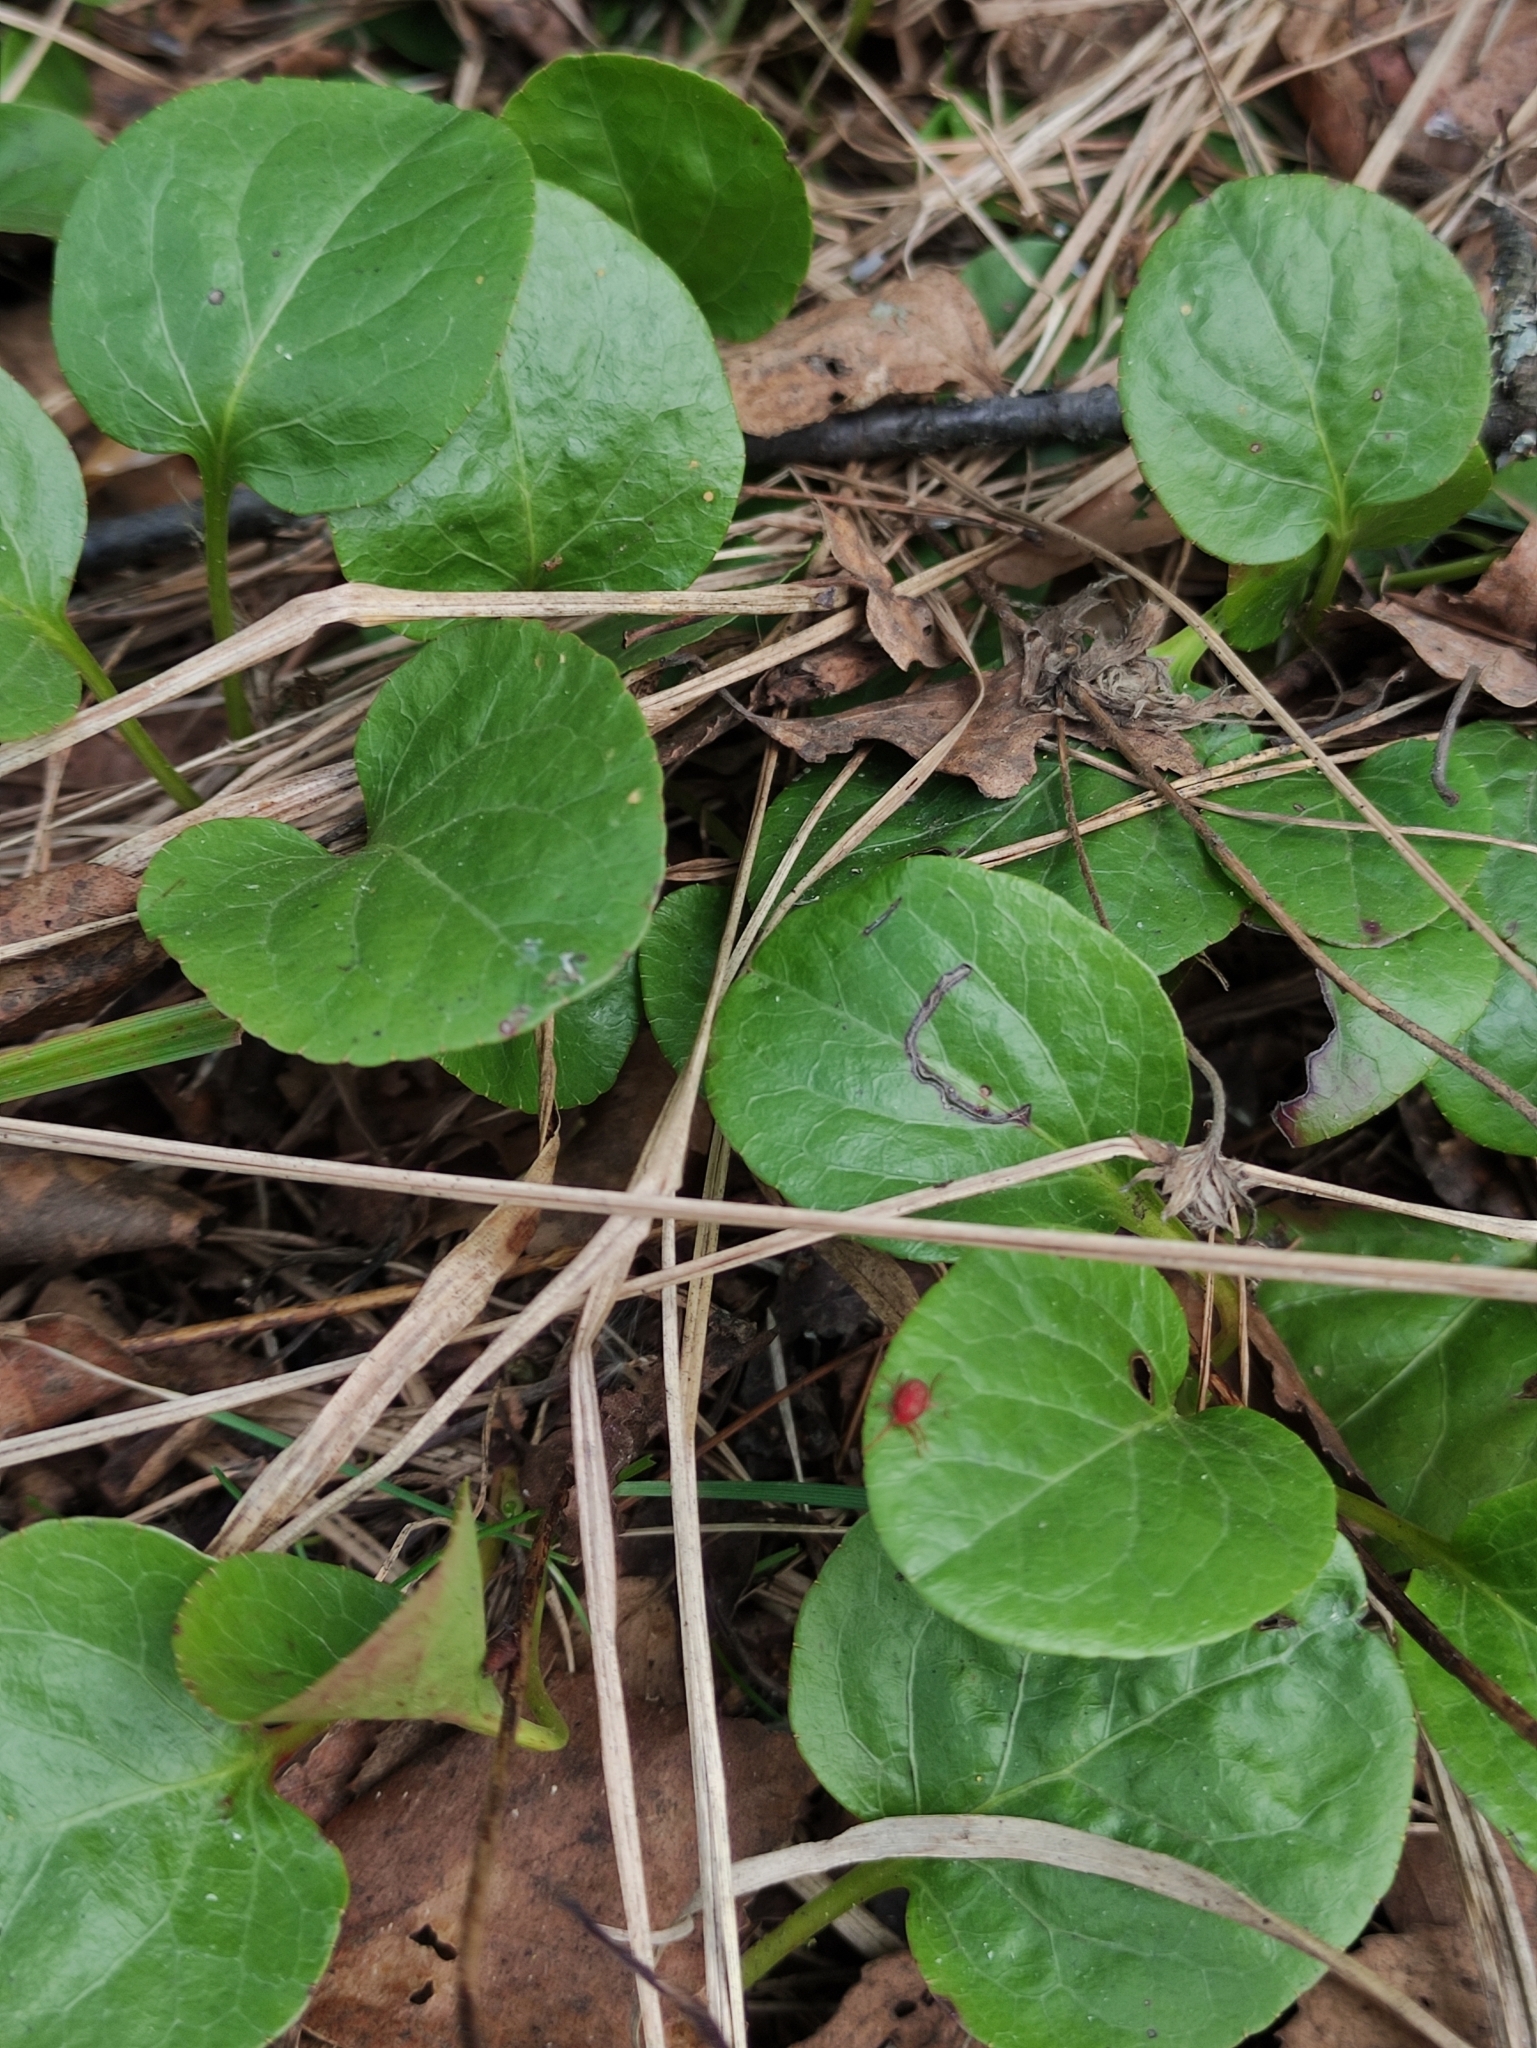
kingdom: Plantae
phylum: Tracheophyta
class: Magnoliopsida
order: Ericales
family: Ericaceae
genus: Pyrola
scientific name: Pyrola
